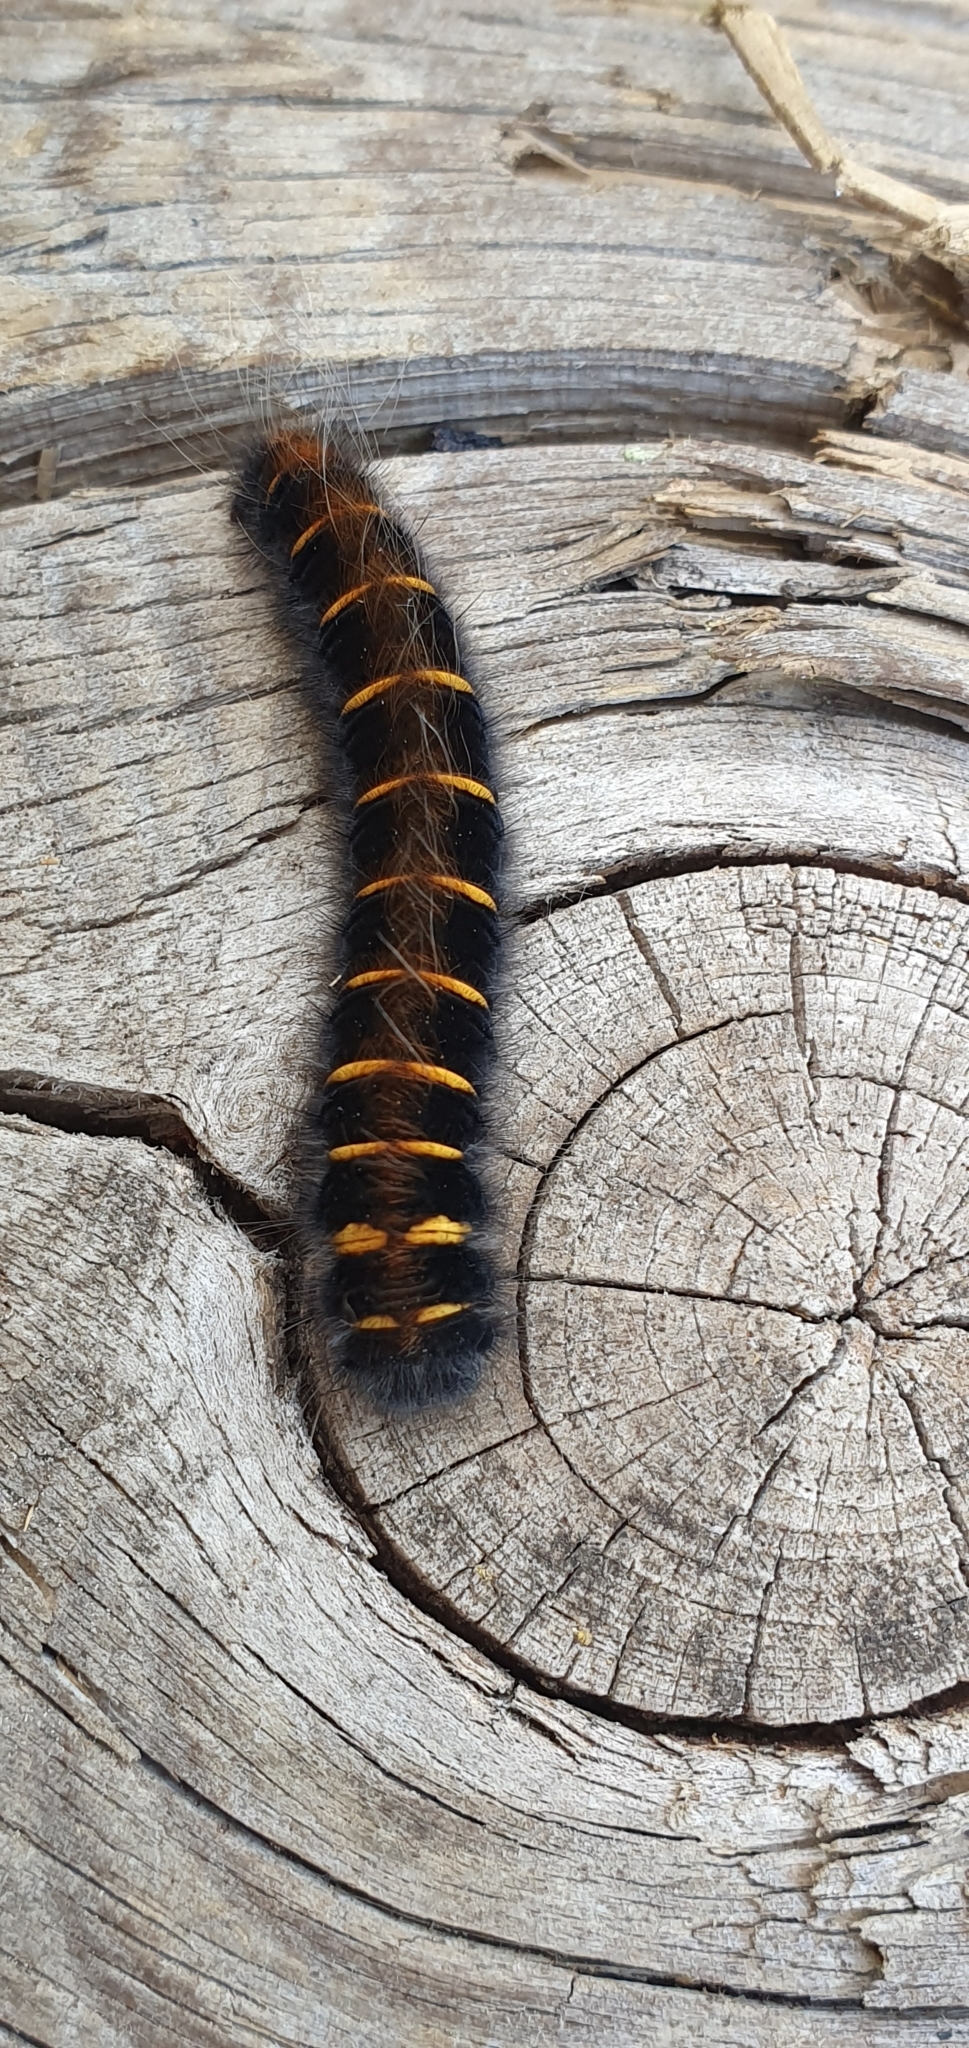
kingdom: Animalia
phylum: Arthropoda
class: Insecta
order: Lepidoptera
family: Lasiocampidae
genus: Macrothylacia
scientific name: Macrothylacia rubi
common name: Fox moth
